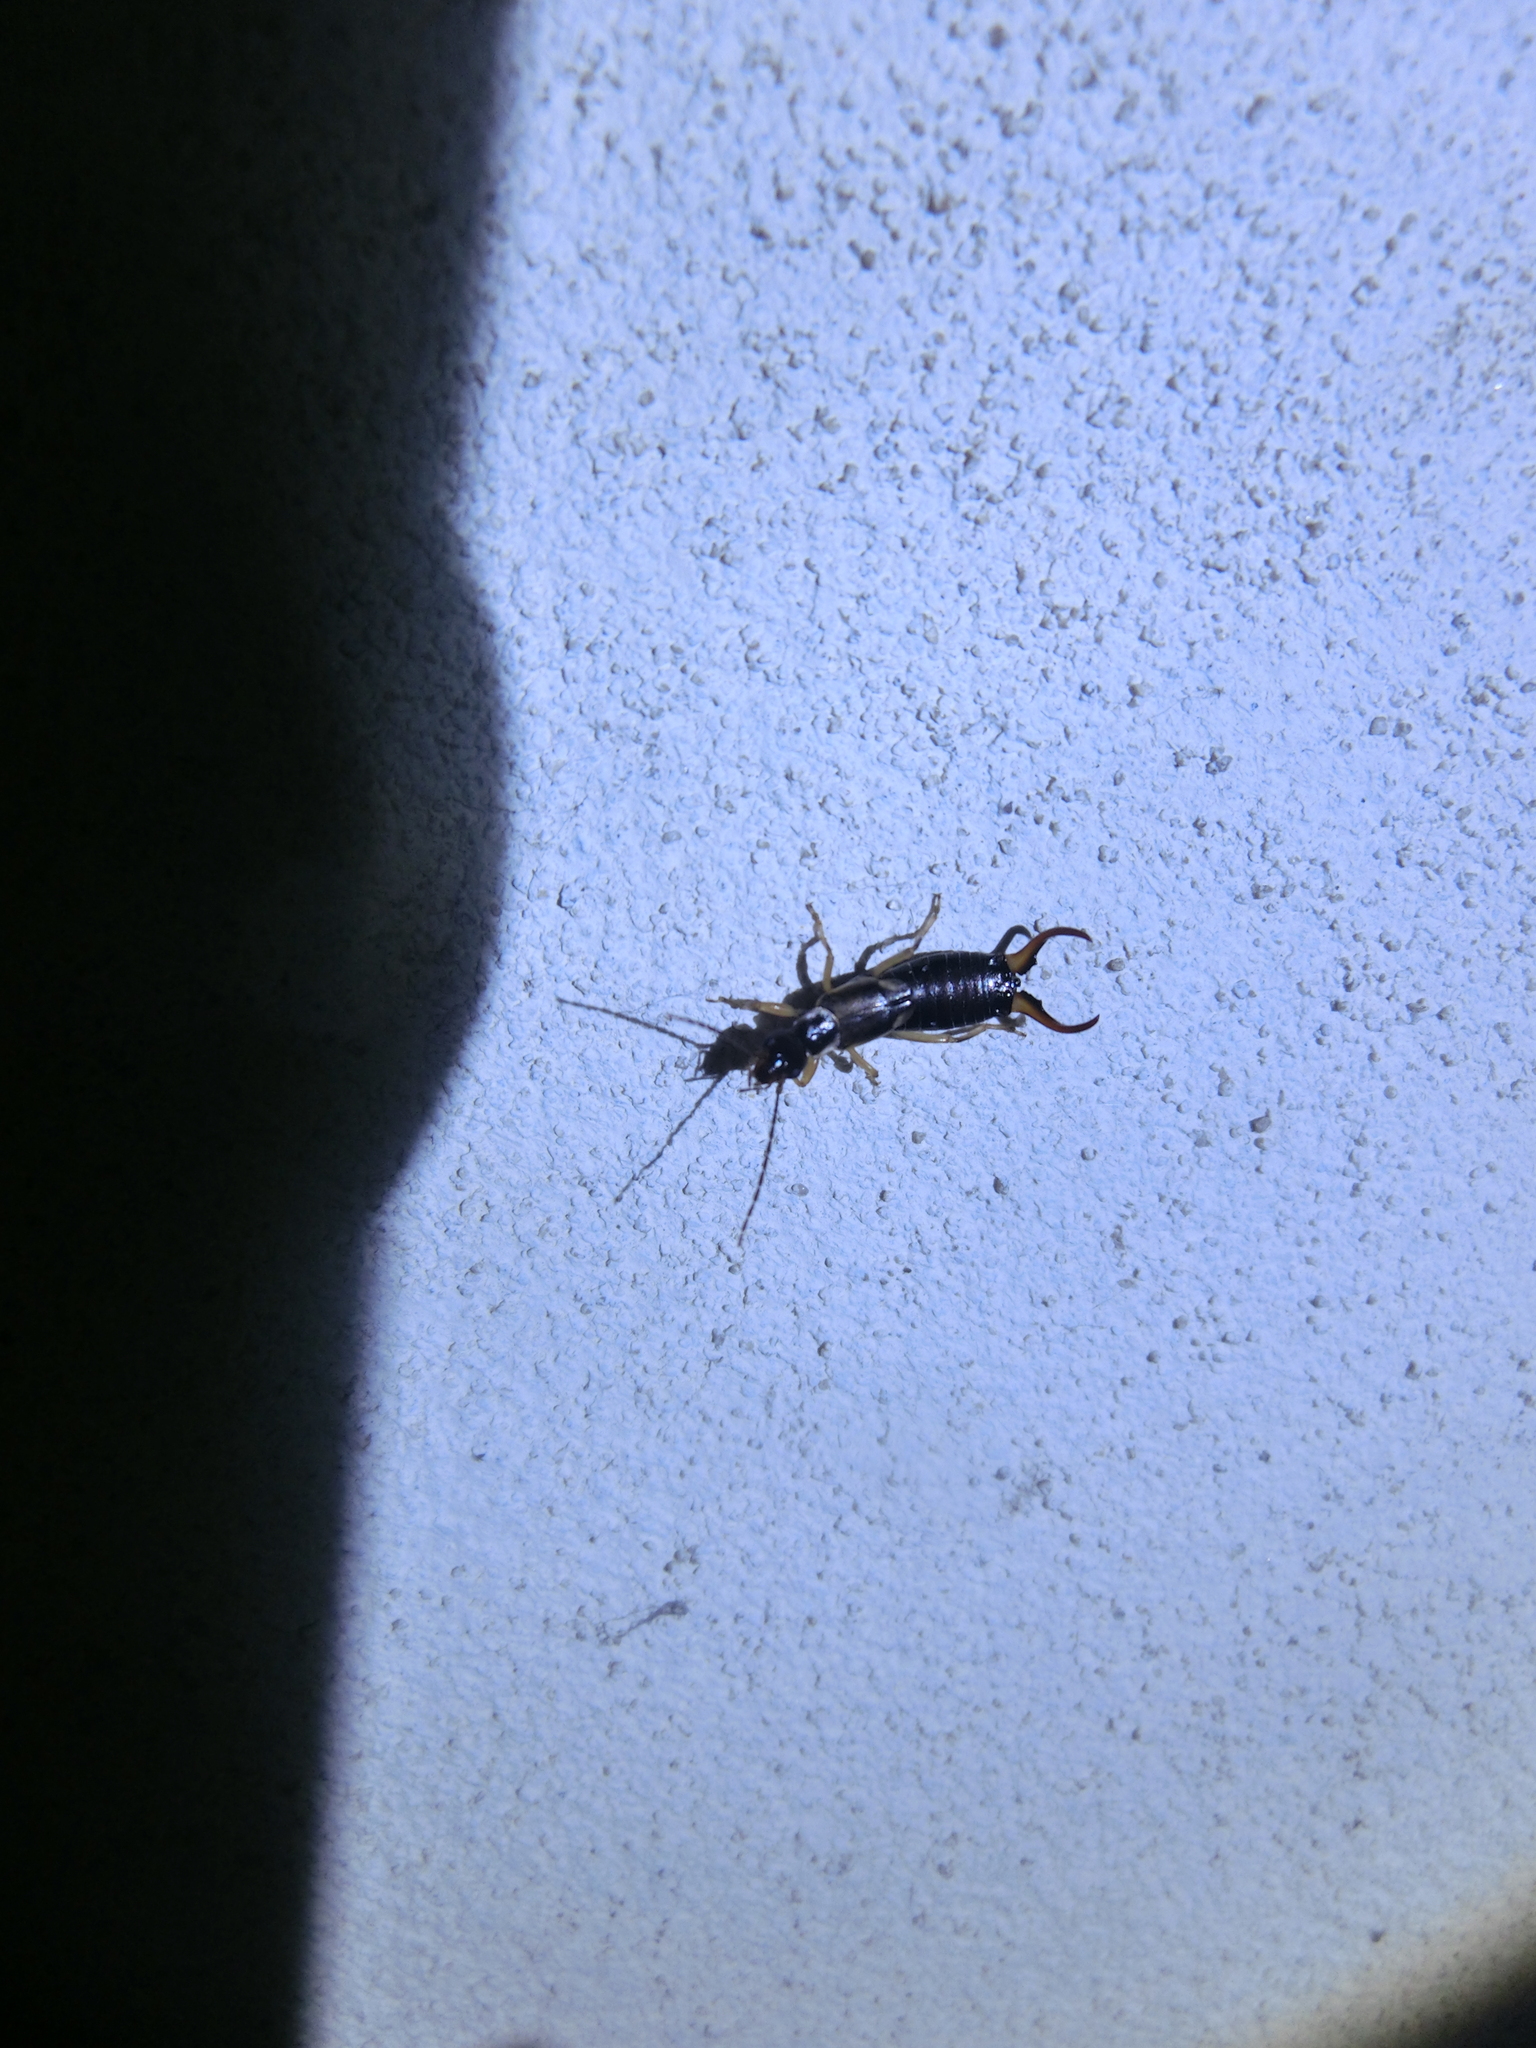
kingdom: Animalia
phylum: Arthropoda
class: Insecta
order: Dermaptera
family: Forficulidae
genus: Forficula
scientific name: Forficula
